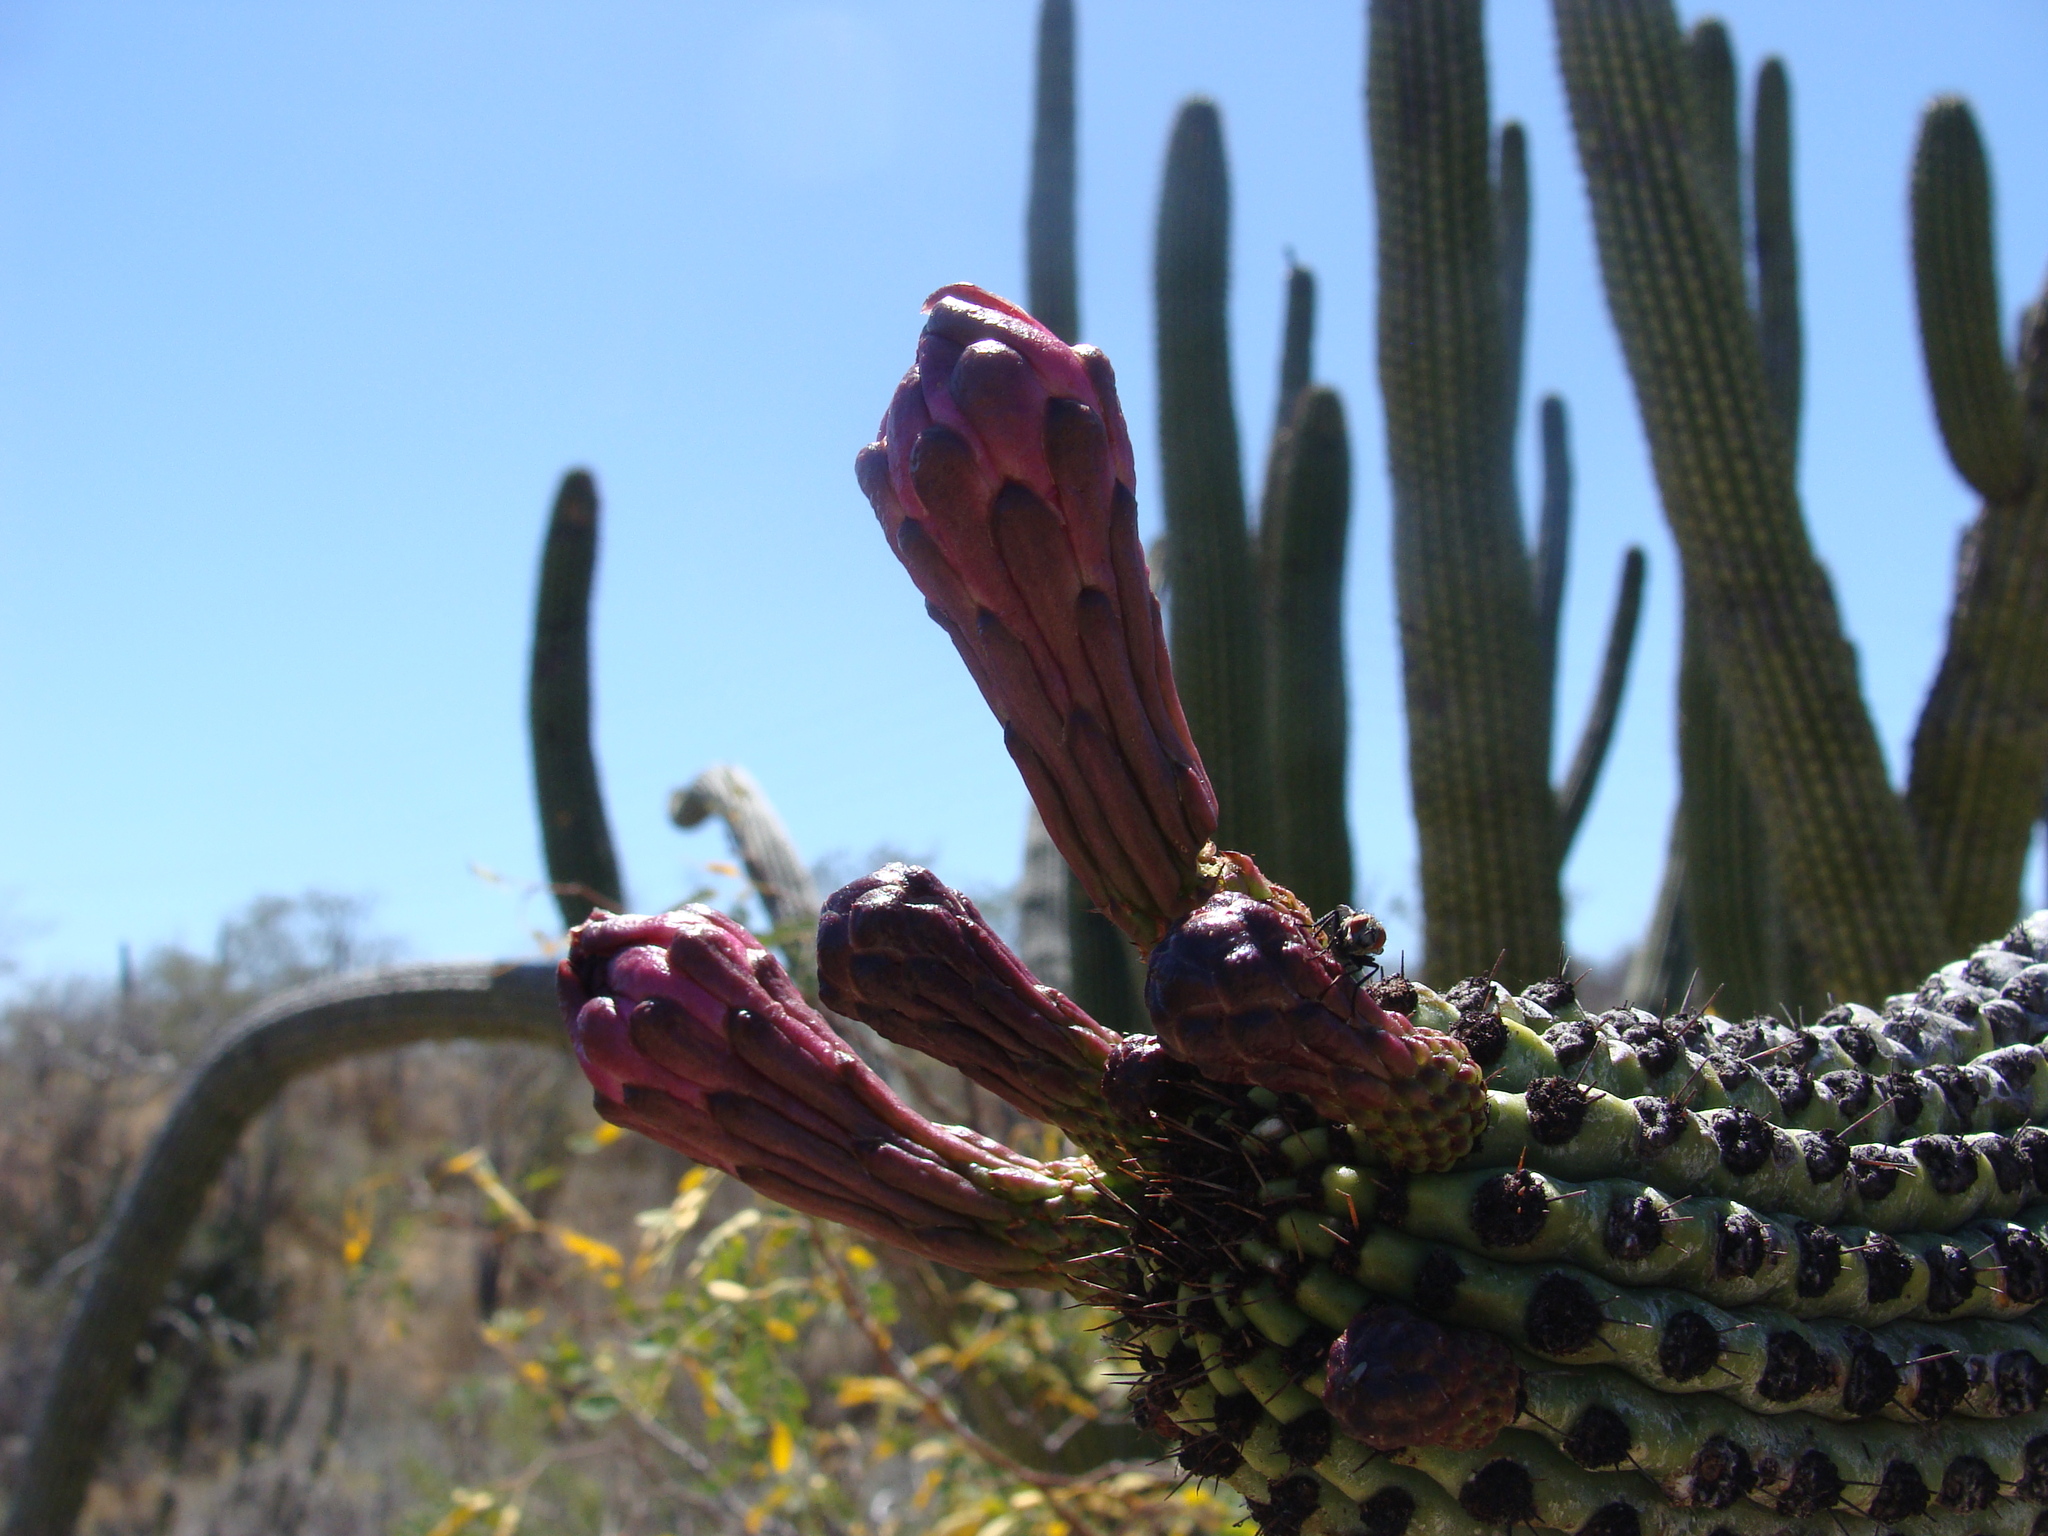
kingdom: Plantae
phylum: Tracheophyta
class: Magnoliopsida
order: Caryophyllales
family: Cactaceae
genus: Stenocereus
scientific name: Stenocereus thurberi
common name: Organ pipe cactus
